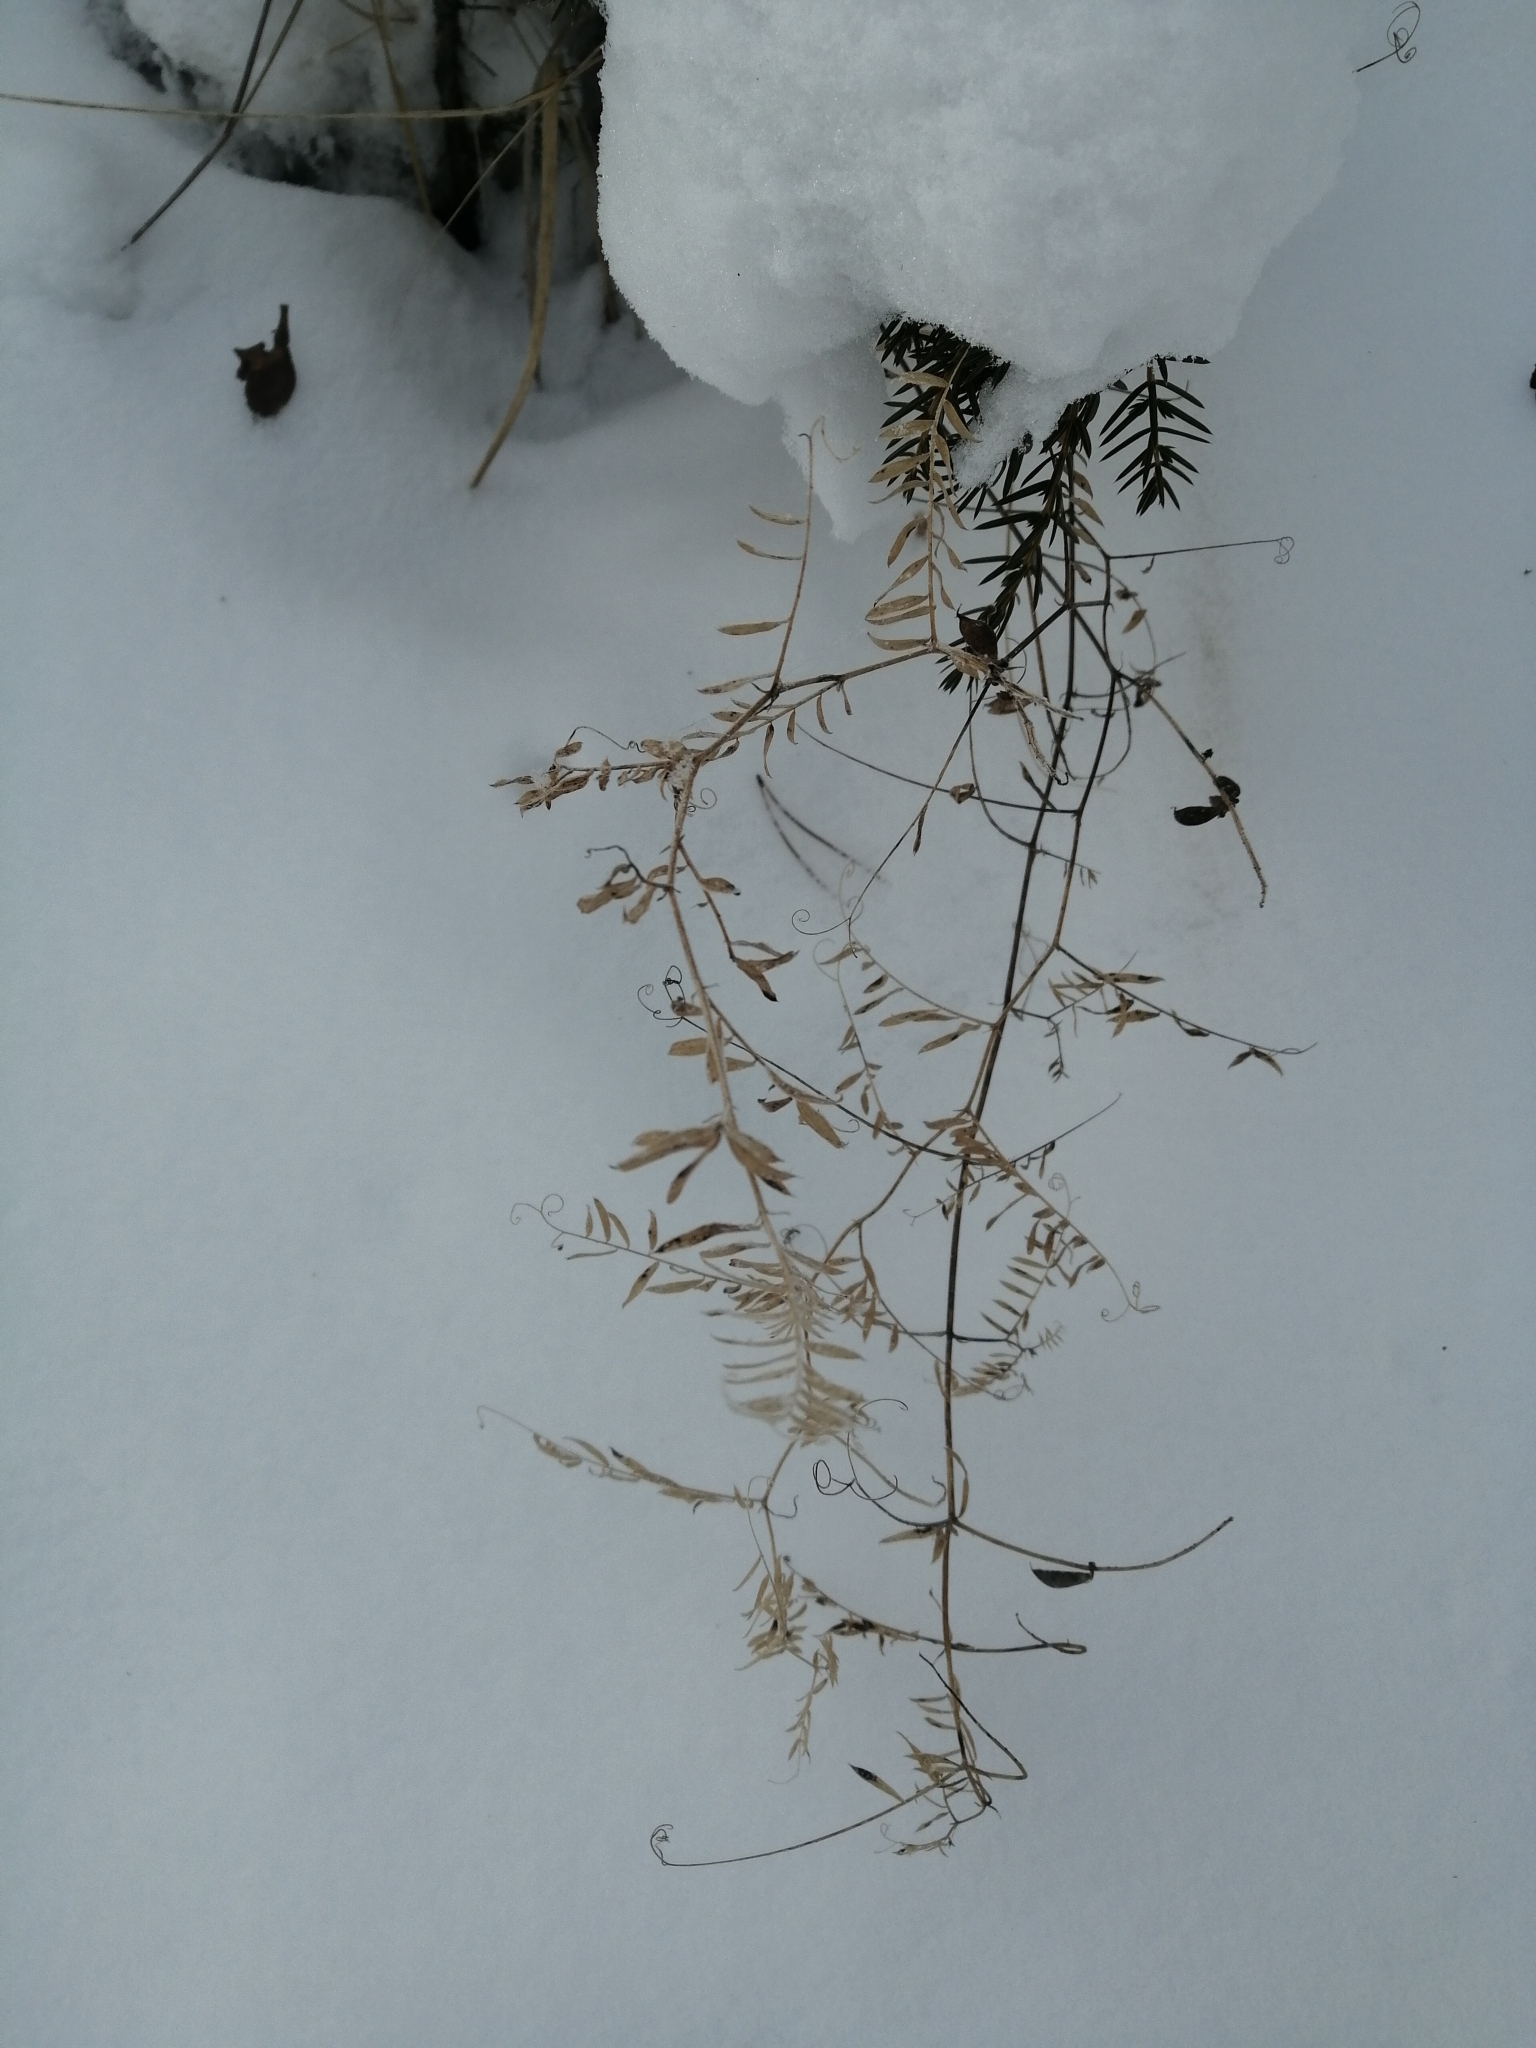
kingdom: Plantae
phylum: Tracheophyta
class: Magnoliopsida
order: Fabales
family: Fabaceae
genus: Vicia
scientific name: Vicia cracca
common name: Bird vetch
